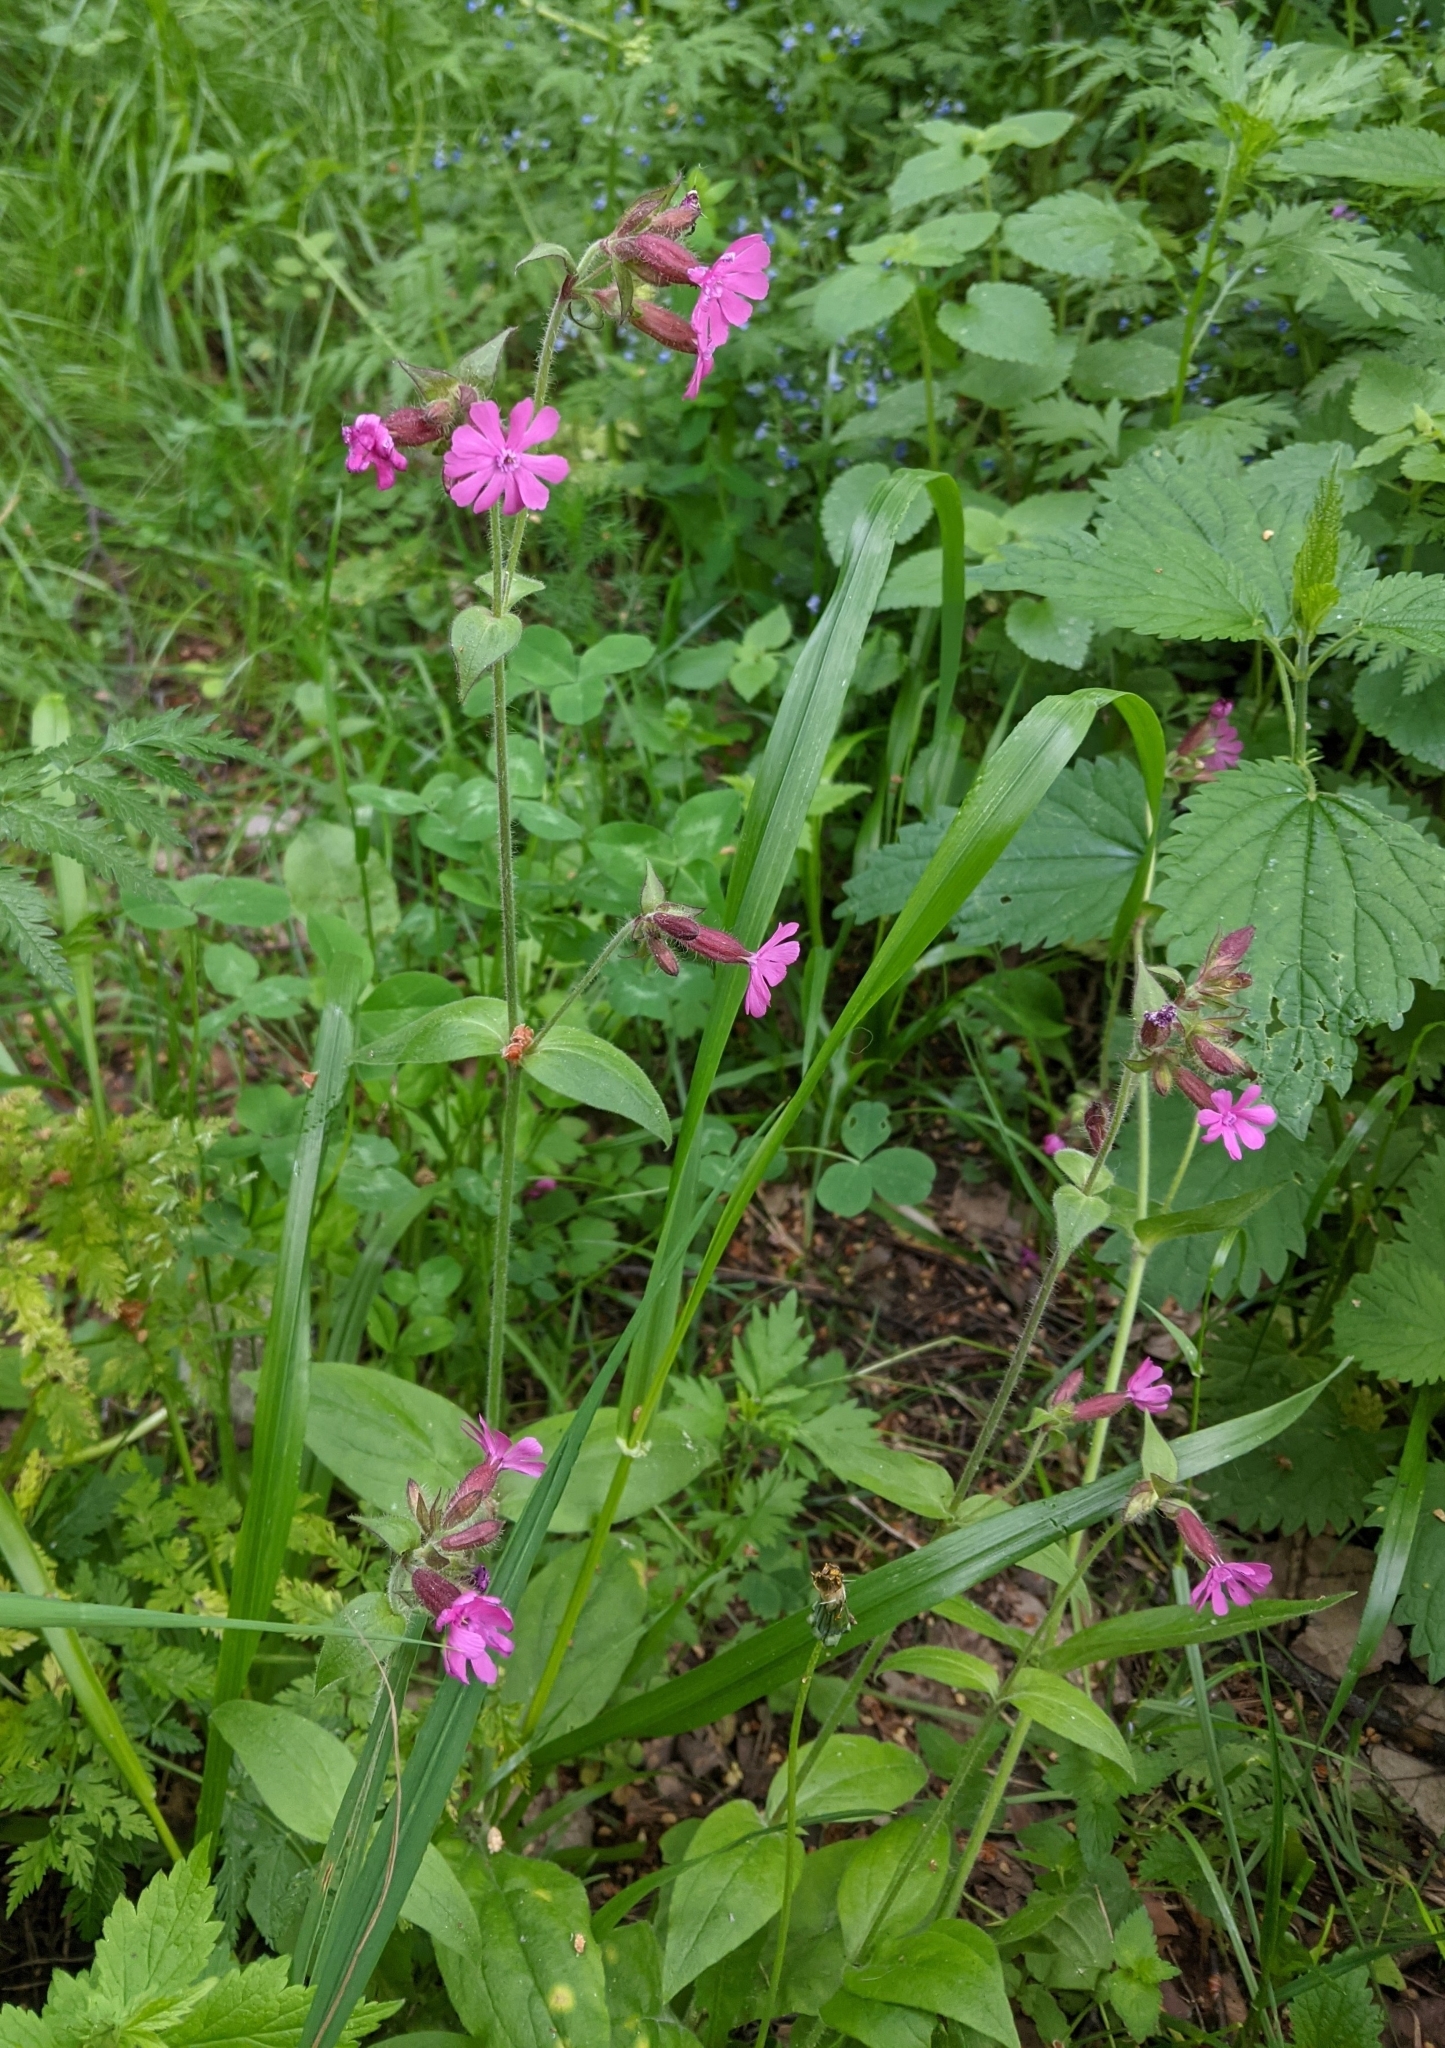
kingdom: Plantae
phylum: Tracheophyta
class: Magnoliopsida
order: Caryophyllales
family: Caryophyllaceae
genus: Silene
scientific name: Silene dioica
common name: Red campion
